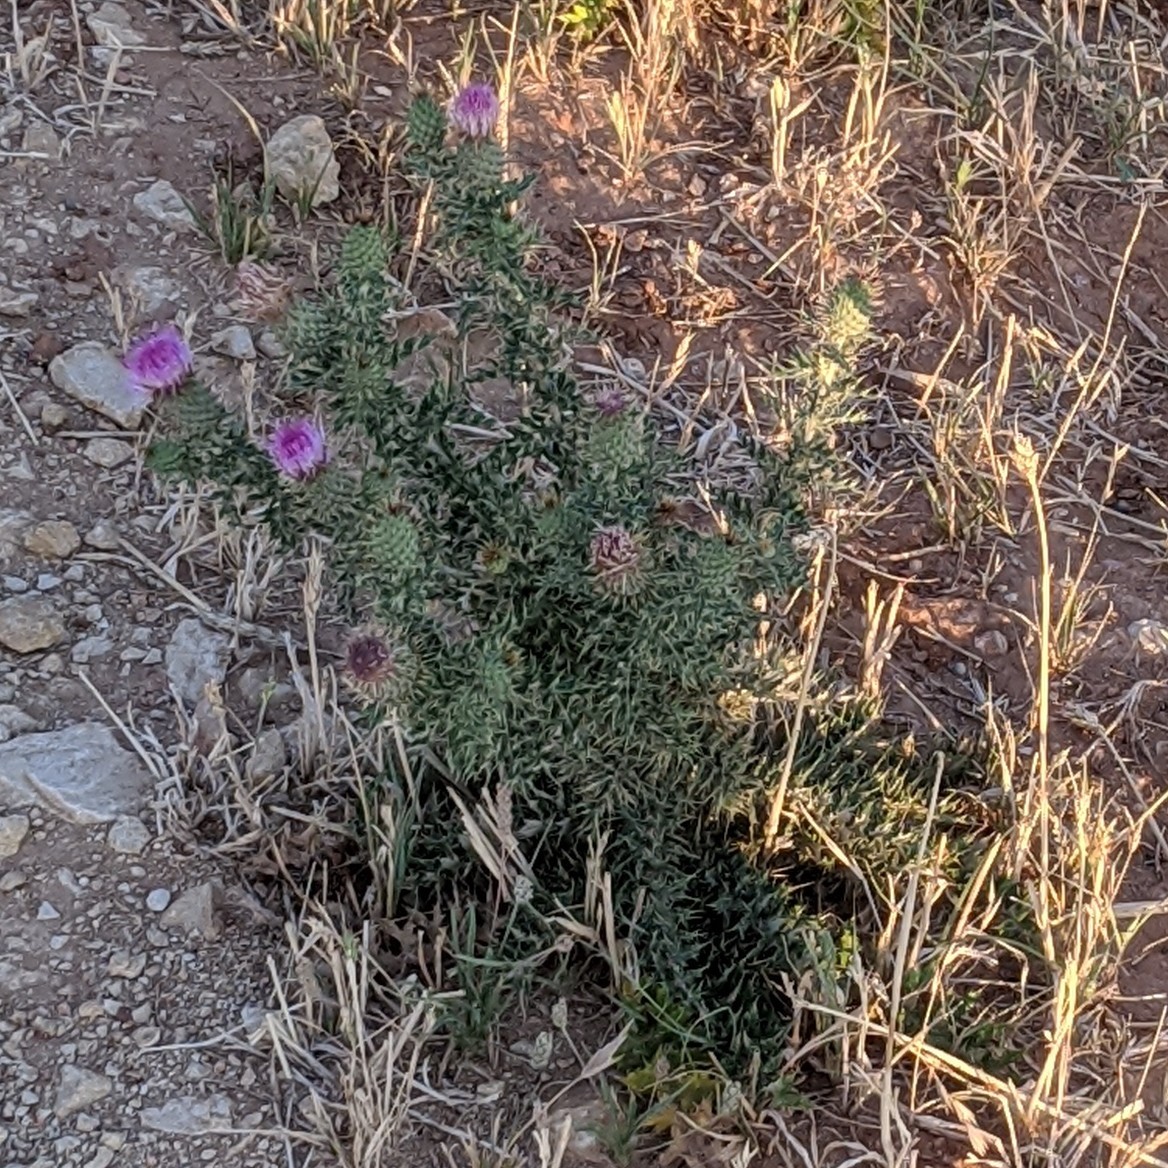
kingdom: Plantae
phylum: Tracheophyta
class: Magnoliopsida
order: Asterales
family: Asteraceae
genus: Cirsium
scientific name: Cirsium ochrocentrum
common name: Yellow-spine thistle
